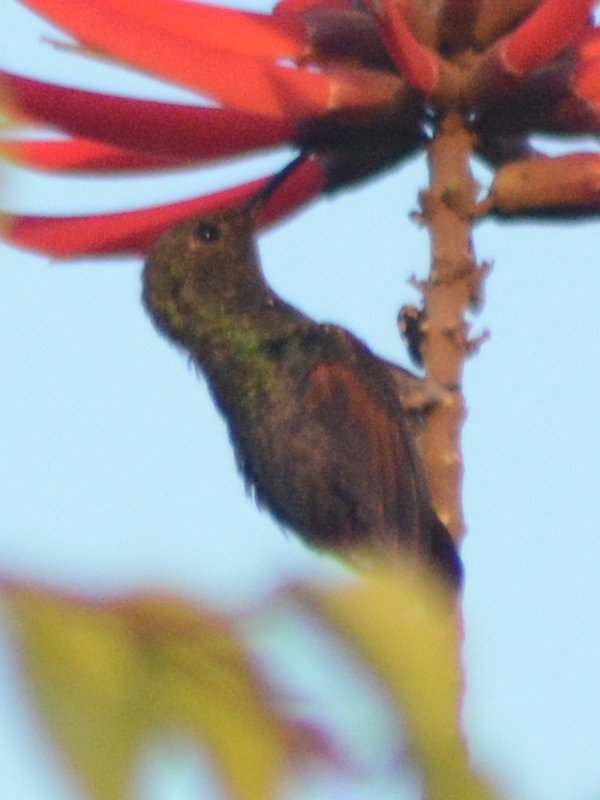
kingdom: Animalia
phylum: Chordata
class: Aves
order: Apodiformes
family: Trochilidae
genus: Saucerottia
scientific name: Saucerottia beryllina
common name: Berylline hummingbird
